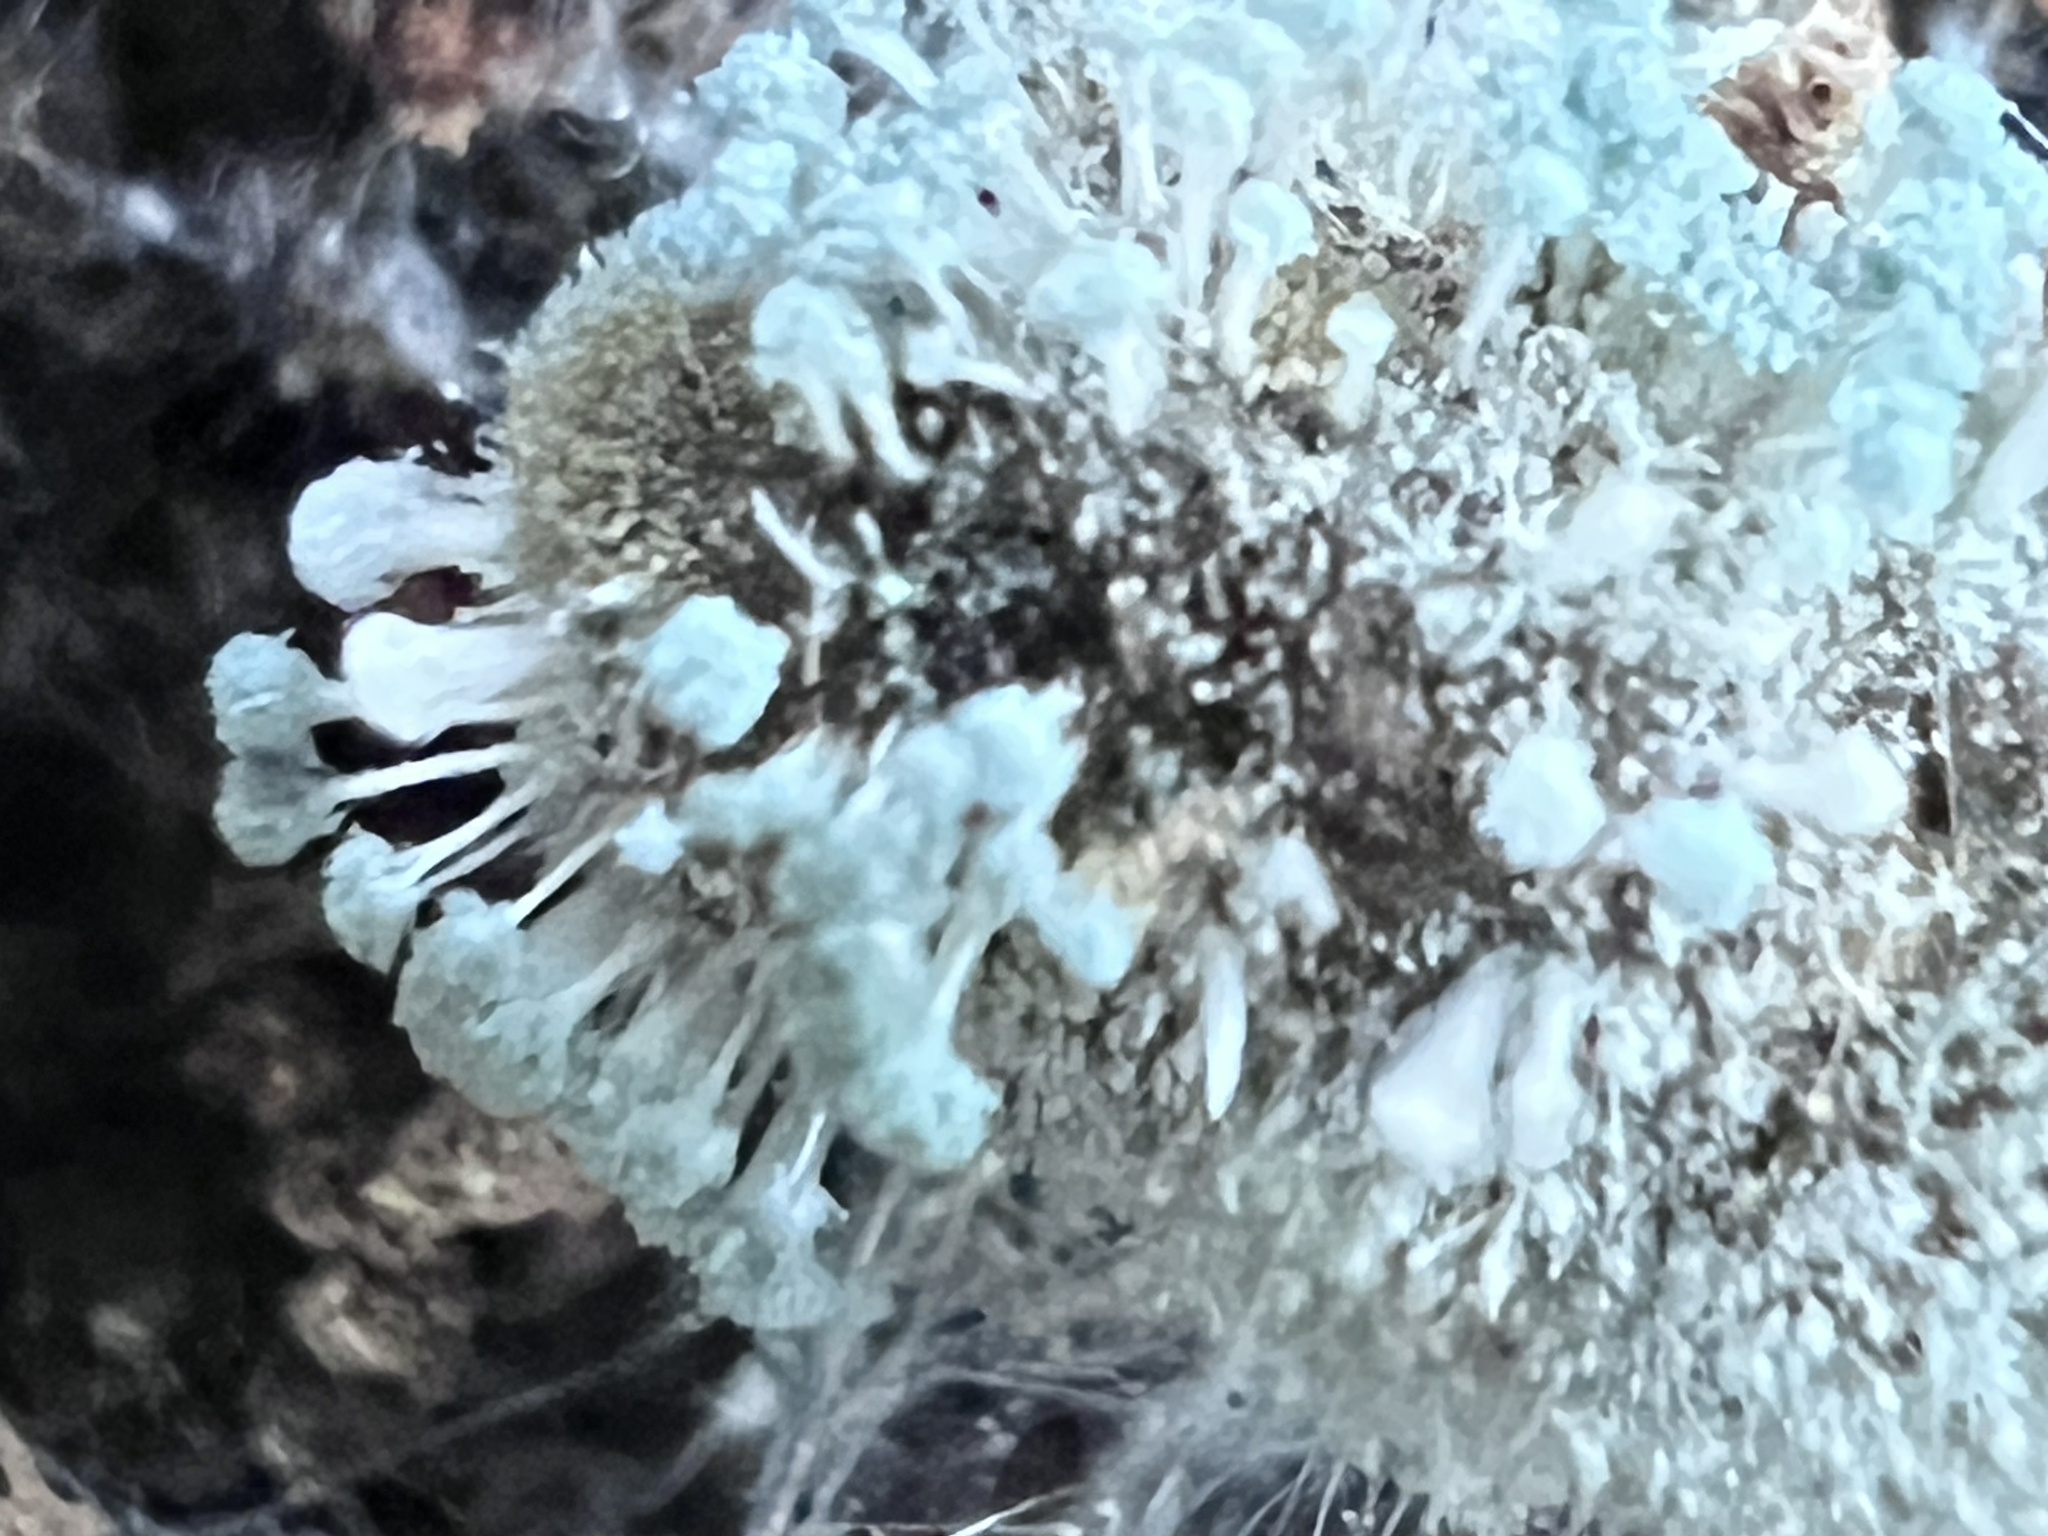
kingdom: Fungi
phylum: Ascomycota
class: Eurotiomycetes
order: Eurotiales
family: Aspergillaceae
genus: Penicillium
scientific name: Penicillium vulpinum
